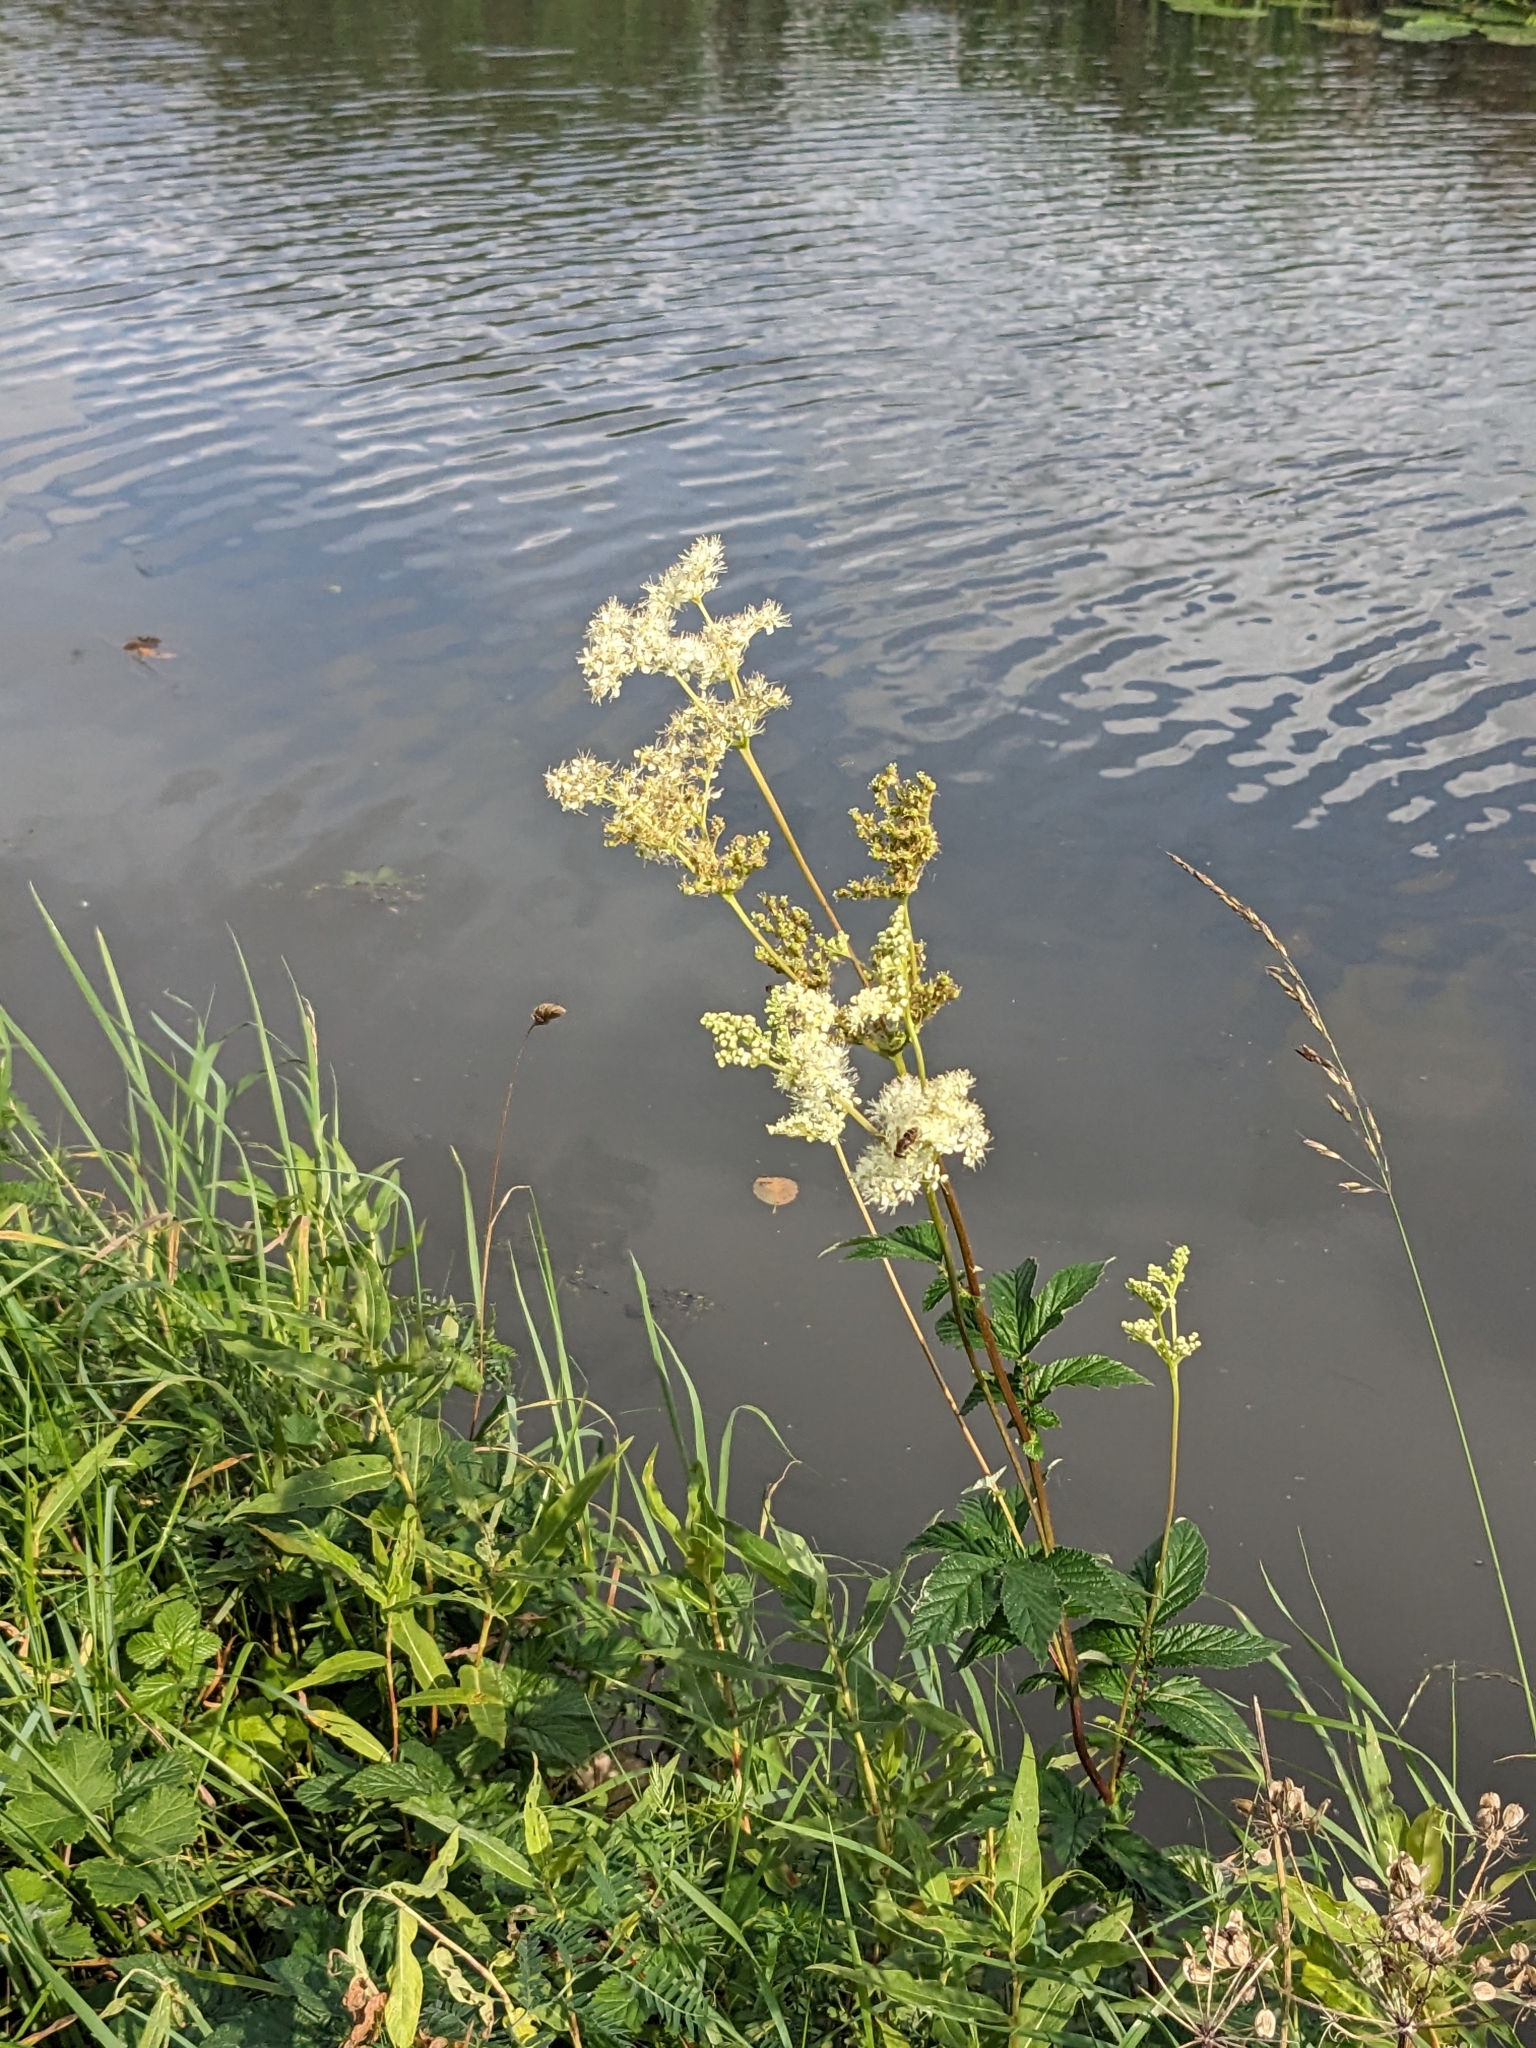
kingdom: Plantae
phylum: Tracheophyta
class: Magnoliopsida
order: Rosales
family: Rosaceae
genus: Filipendula
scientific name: Filipendula ulmaria
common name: Meadowsweet
